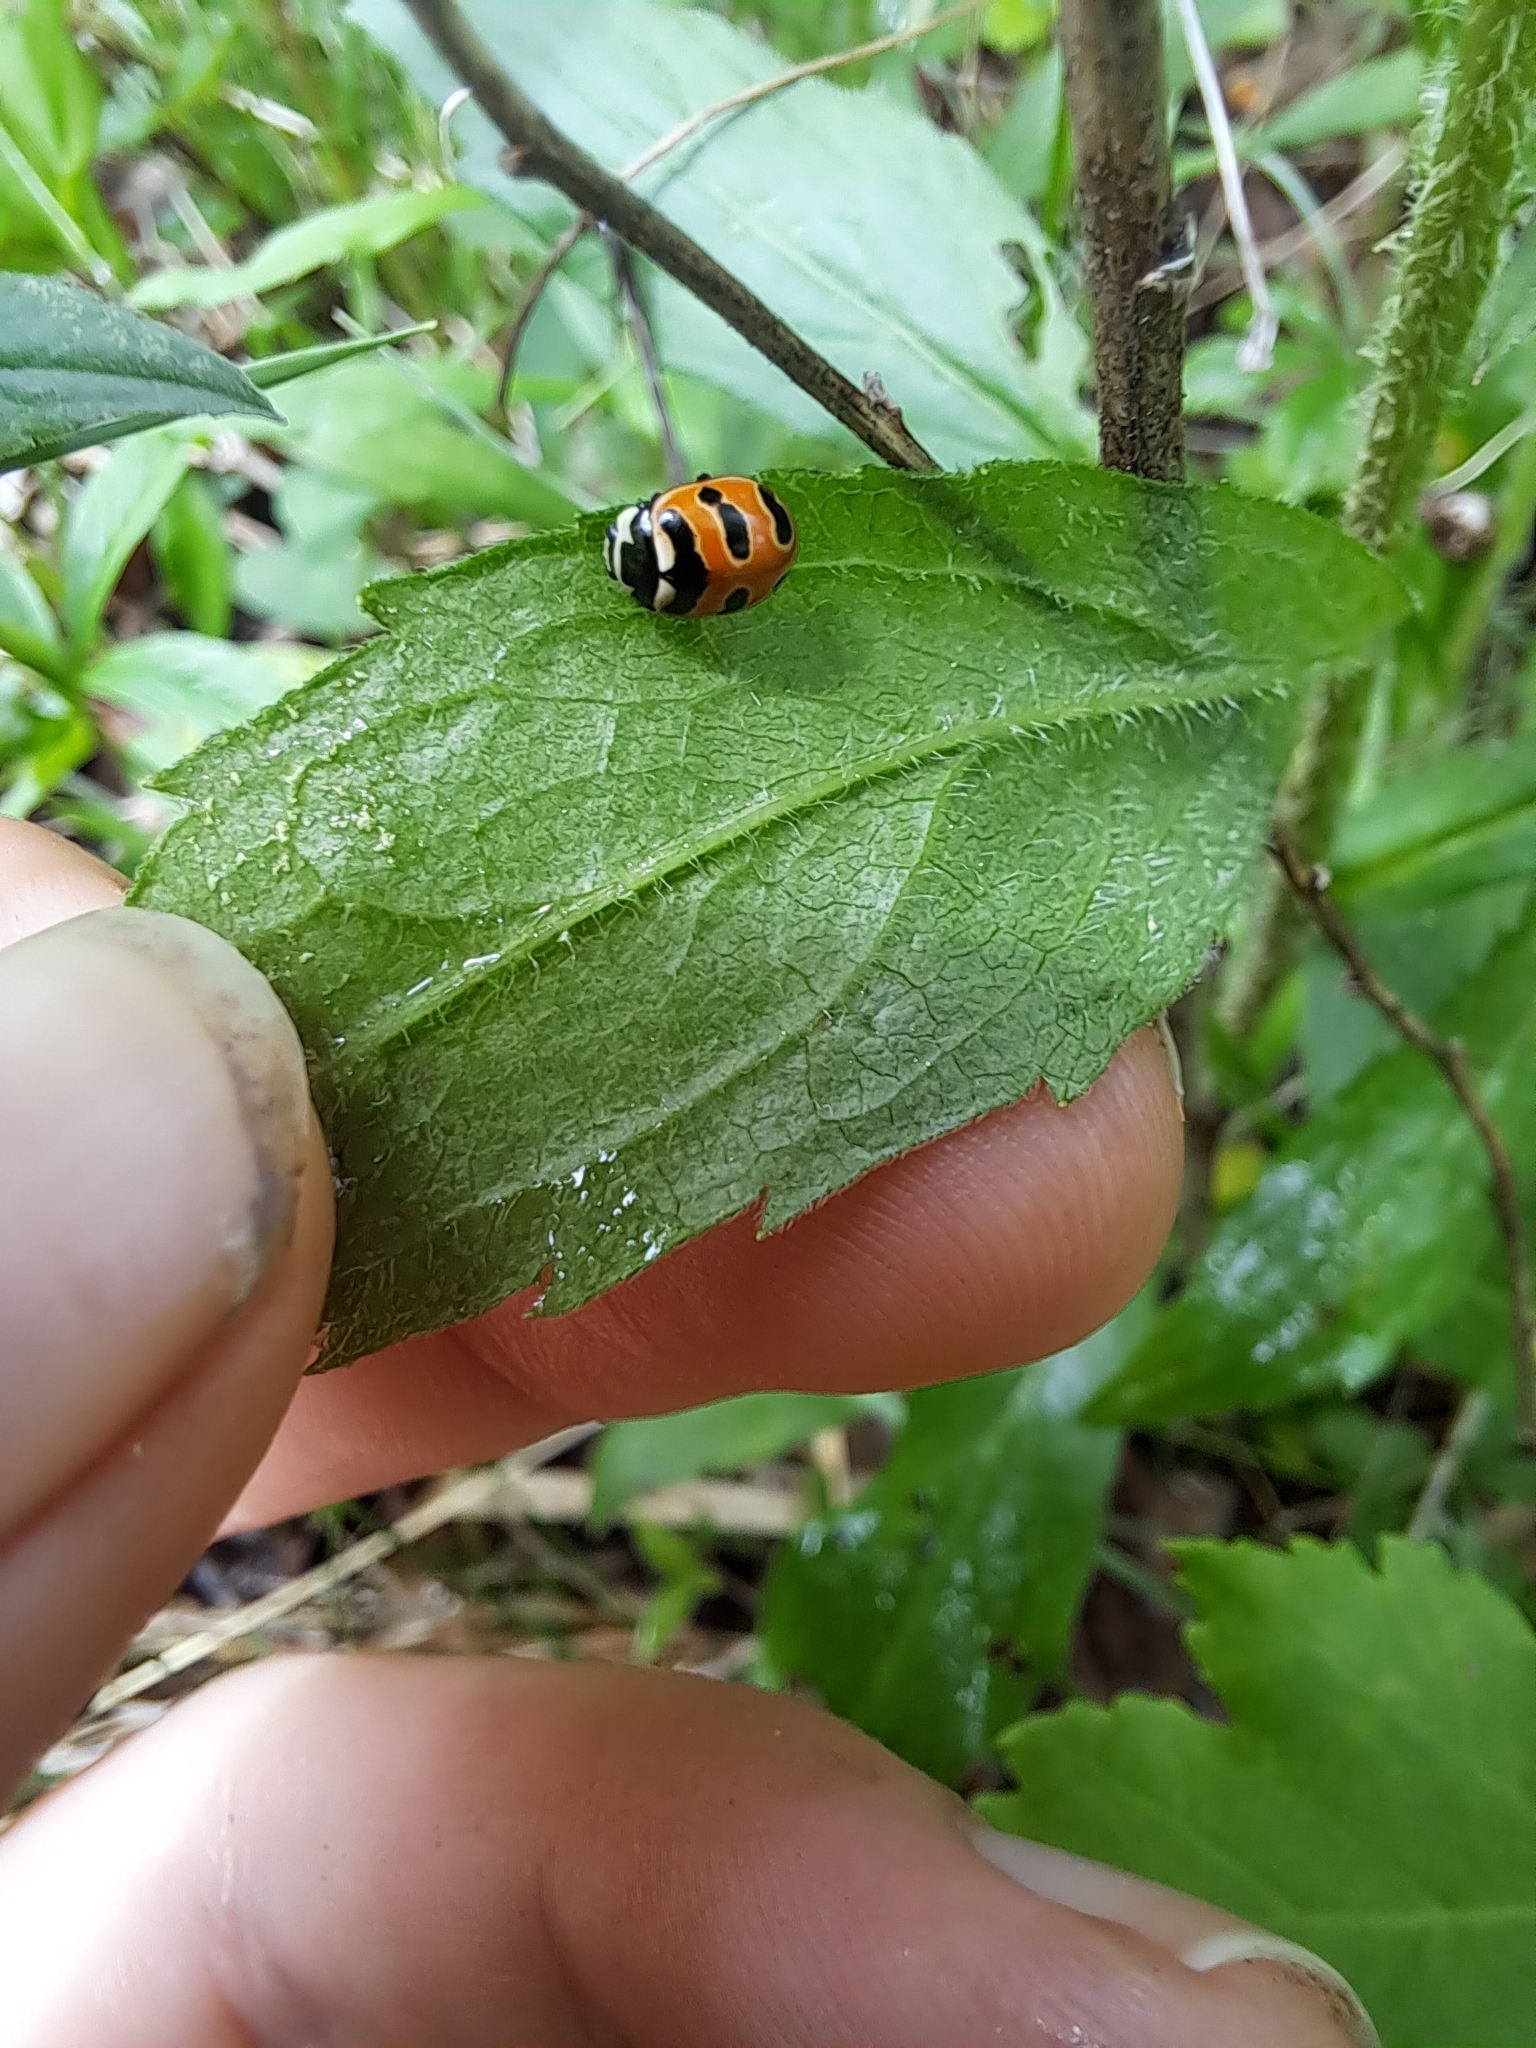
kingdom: Animalia
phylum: Arthropoda
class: Insecta
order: Coleoptera
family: Coccinellidae
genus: Coccinella
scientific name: Coccinella trifasciata
